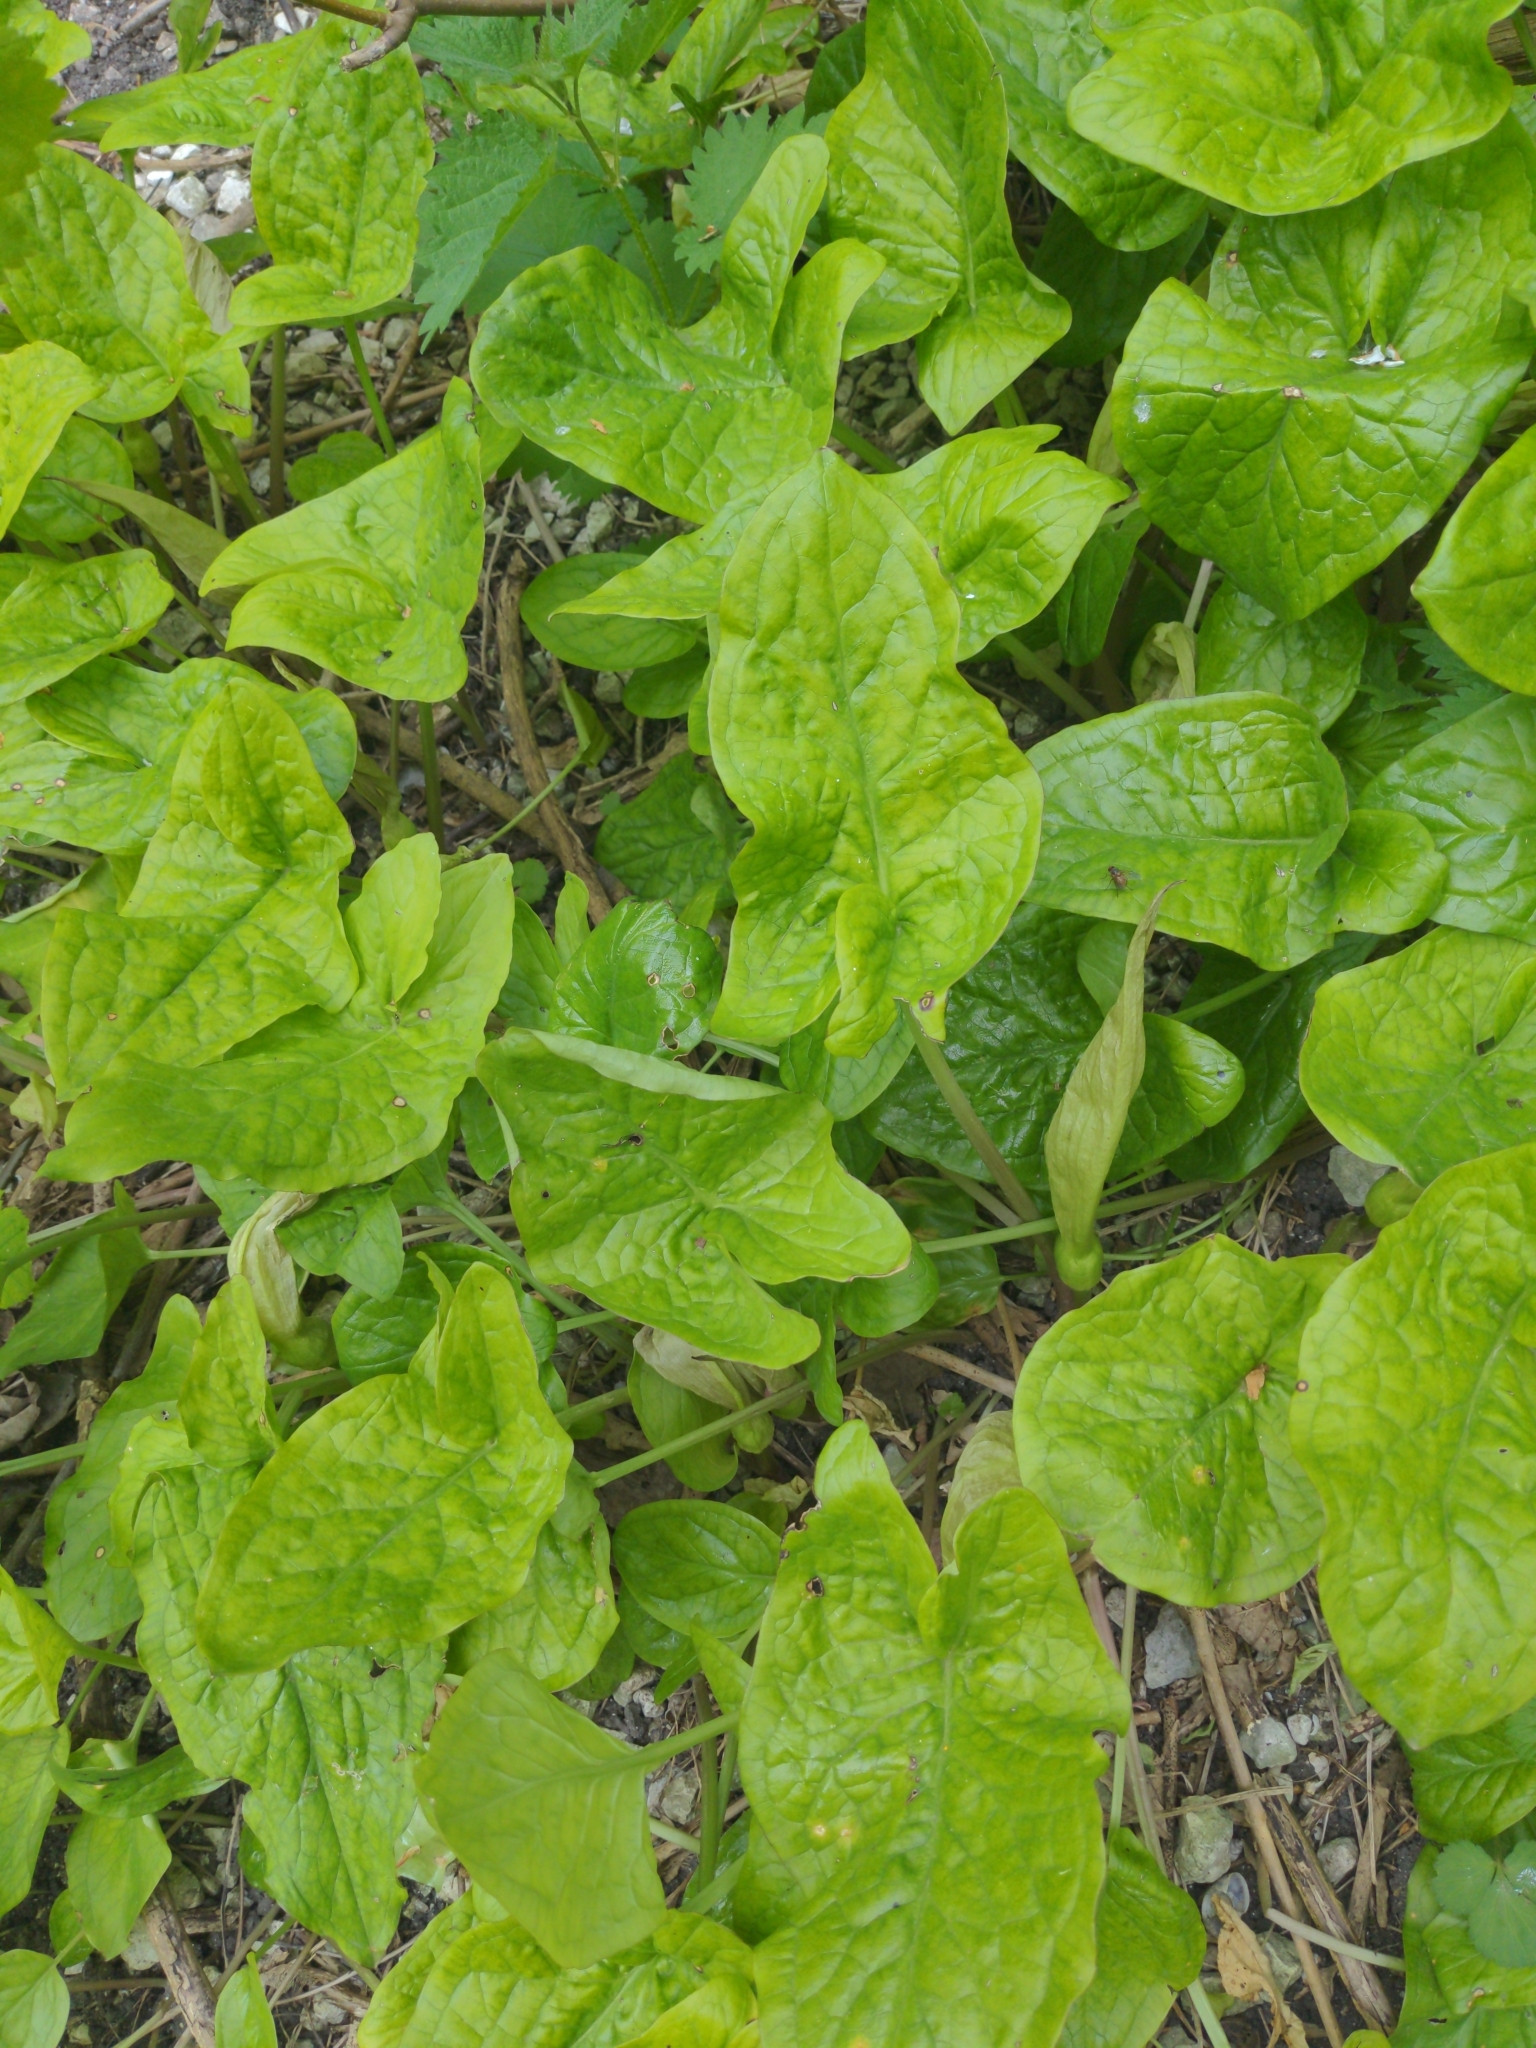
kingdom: Plantae
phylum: Tracheophyta
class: Liliopsida
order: Alismatales
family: Araceae
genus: Arum
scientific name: Arum maculatum
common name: Lords-and-ladies
